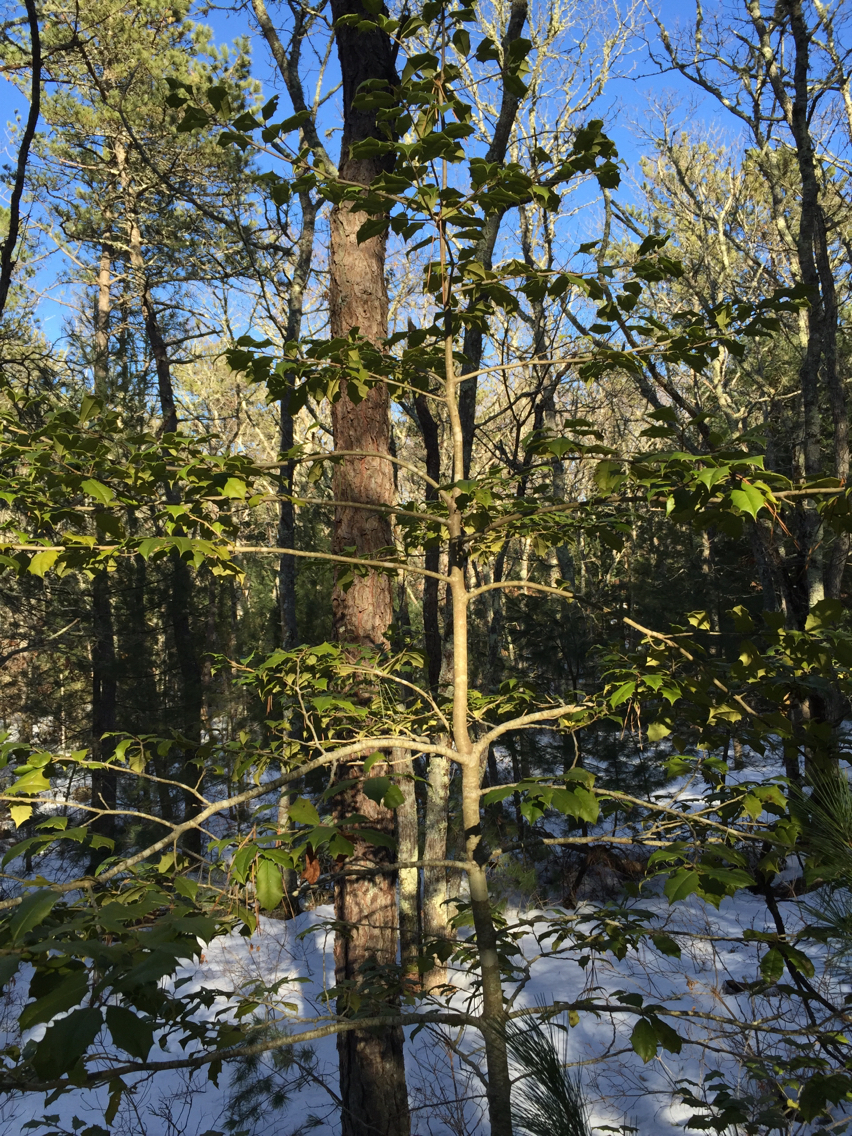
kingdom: Plantae
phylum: Tracheophyta
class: Magnoliopsida
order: Aquifoliales
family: Aquifoliaceae
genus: Ilex
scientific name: Ilex opaca
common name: American holly
